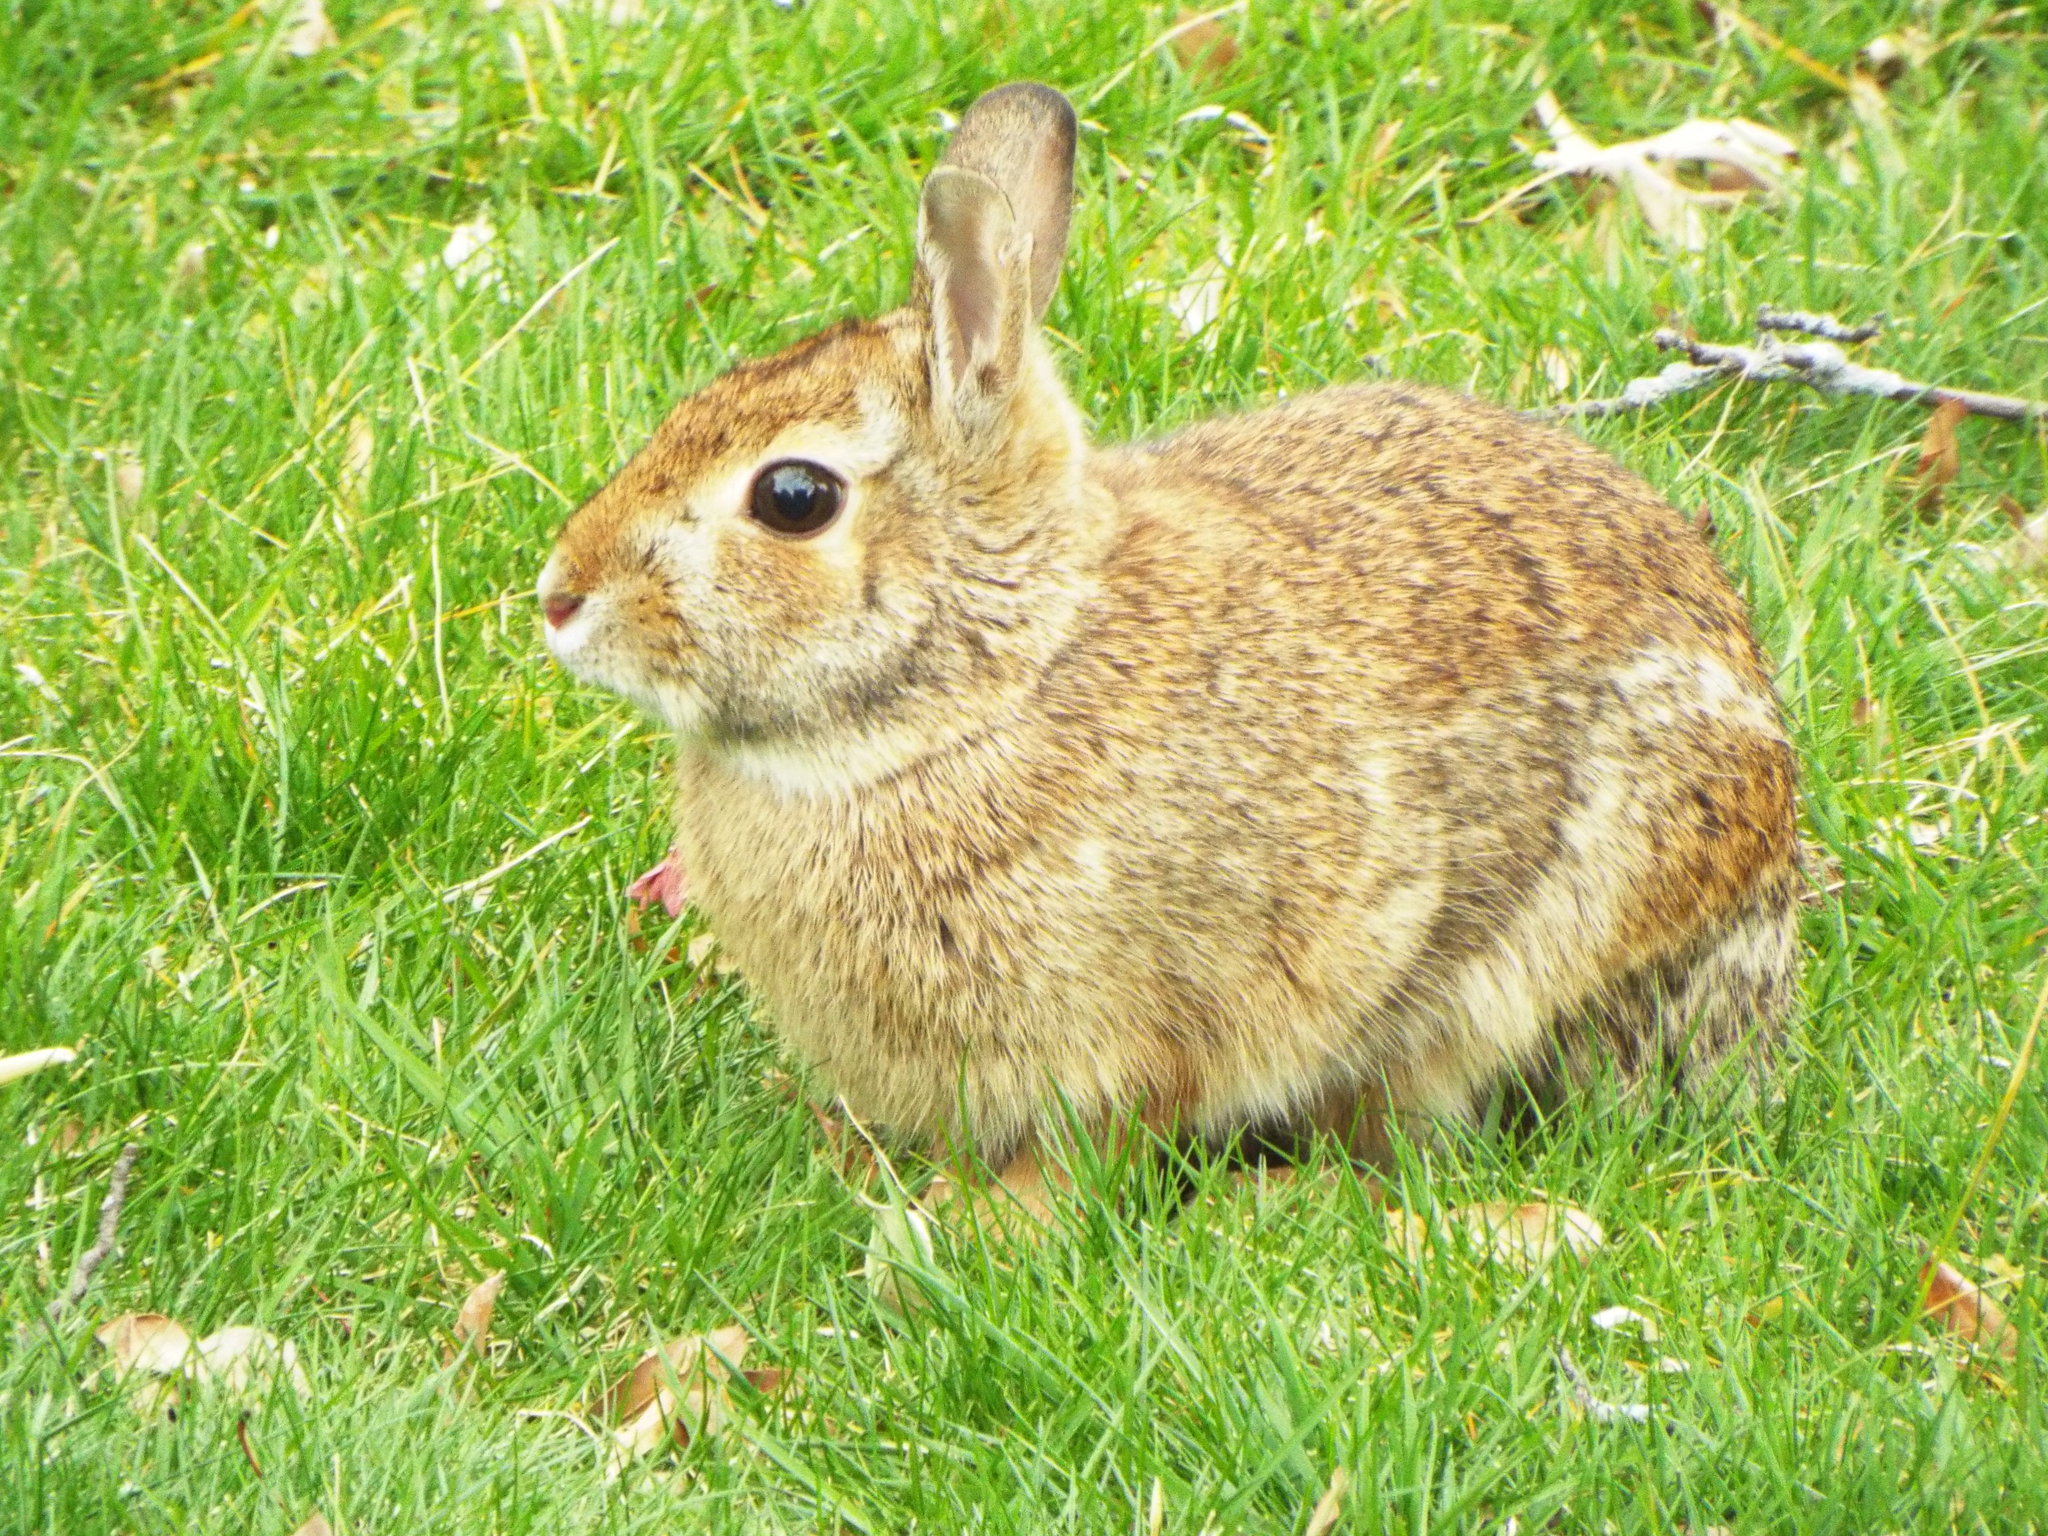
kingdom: Animalia
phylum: Chordata
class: Mammalia
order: Lagomorpha
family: Leporidae
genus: Sylvilagus
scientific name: Sylvilagus floridanus
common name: Eastern cottontail
